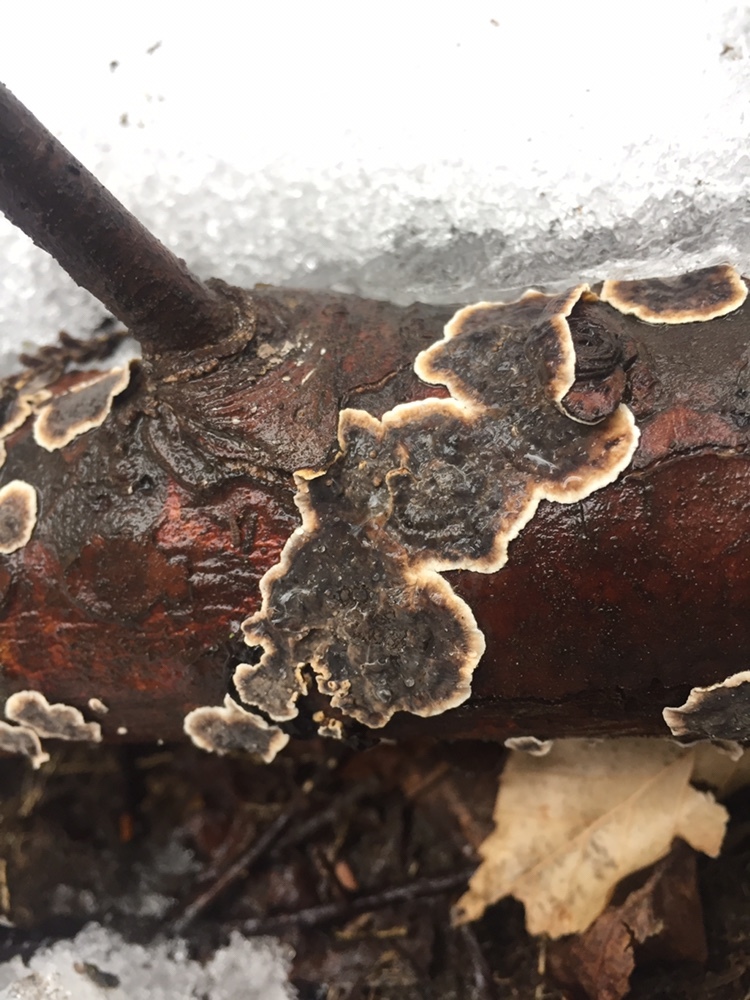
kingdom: Fungi
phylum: Basidiomycota
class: Agaricomycetes
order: Russulales
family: Stereaceae
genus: Stereum
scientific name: Stereum sanguinolentum
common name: Bleeding conifer crust
